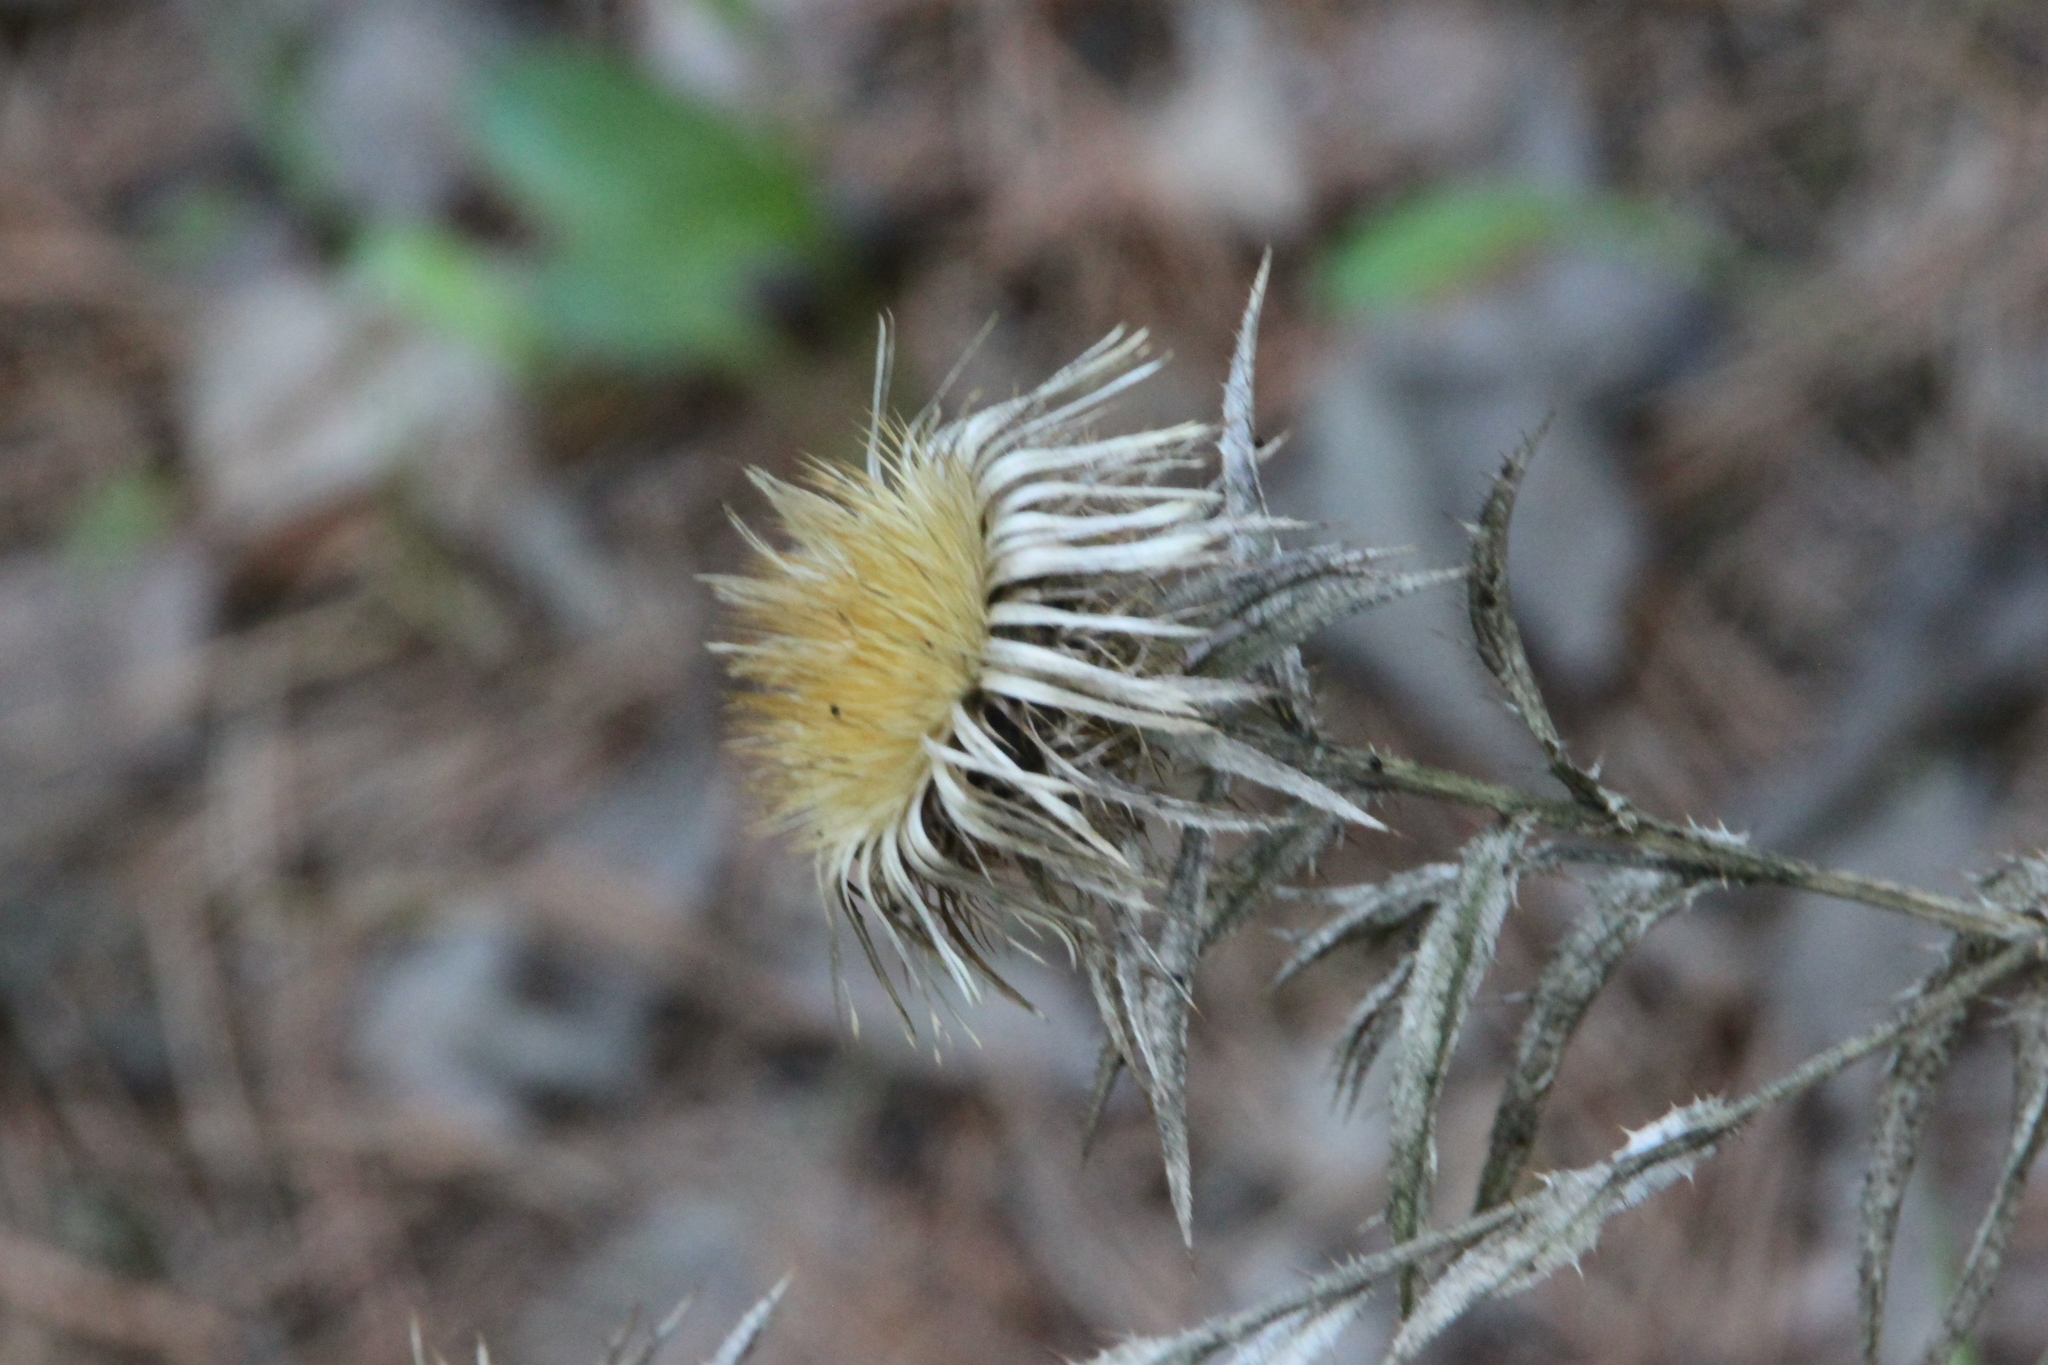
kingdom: Plantae
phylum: Tracheophyta
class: Magnoliopsida
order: Asterales
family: Asteraceae
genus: Carlina
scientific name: Carlina biebersteinii
